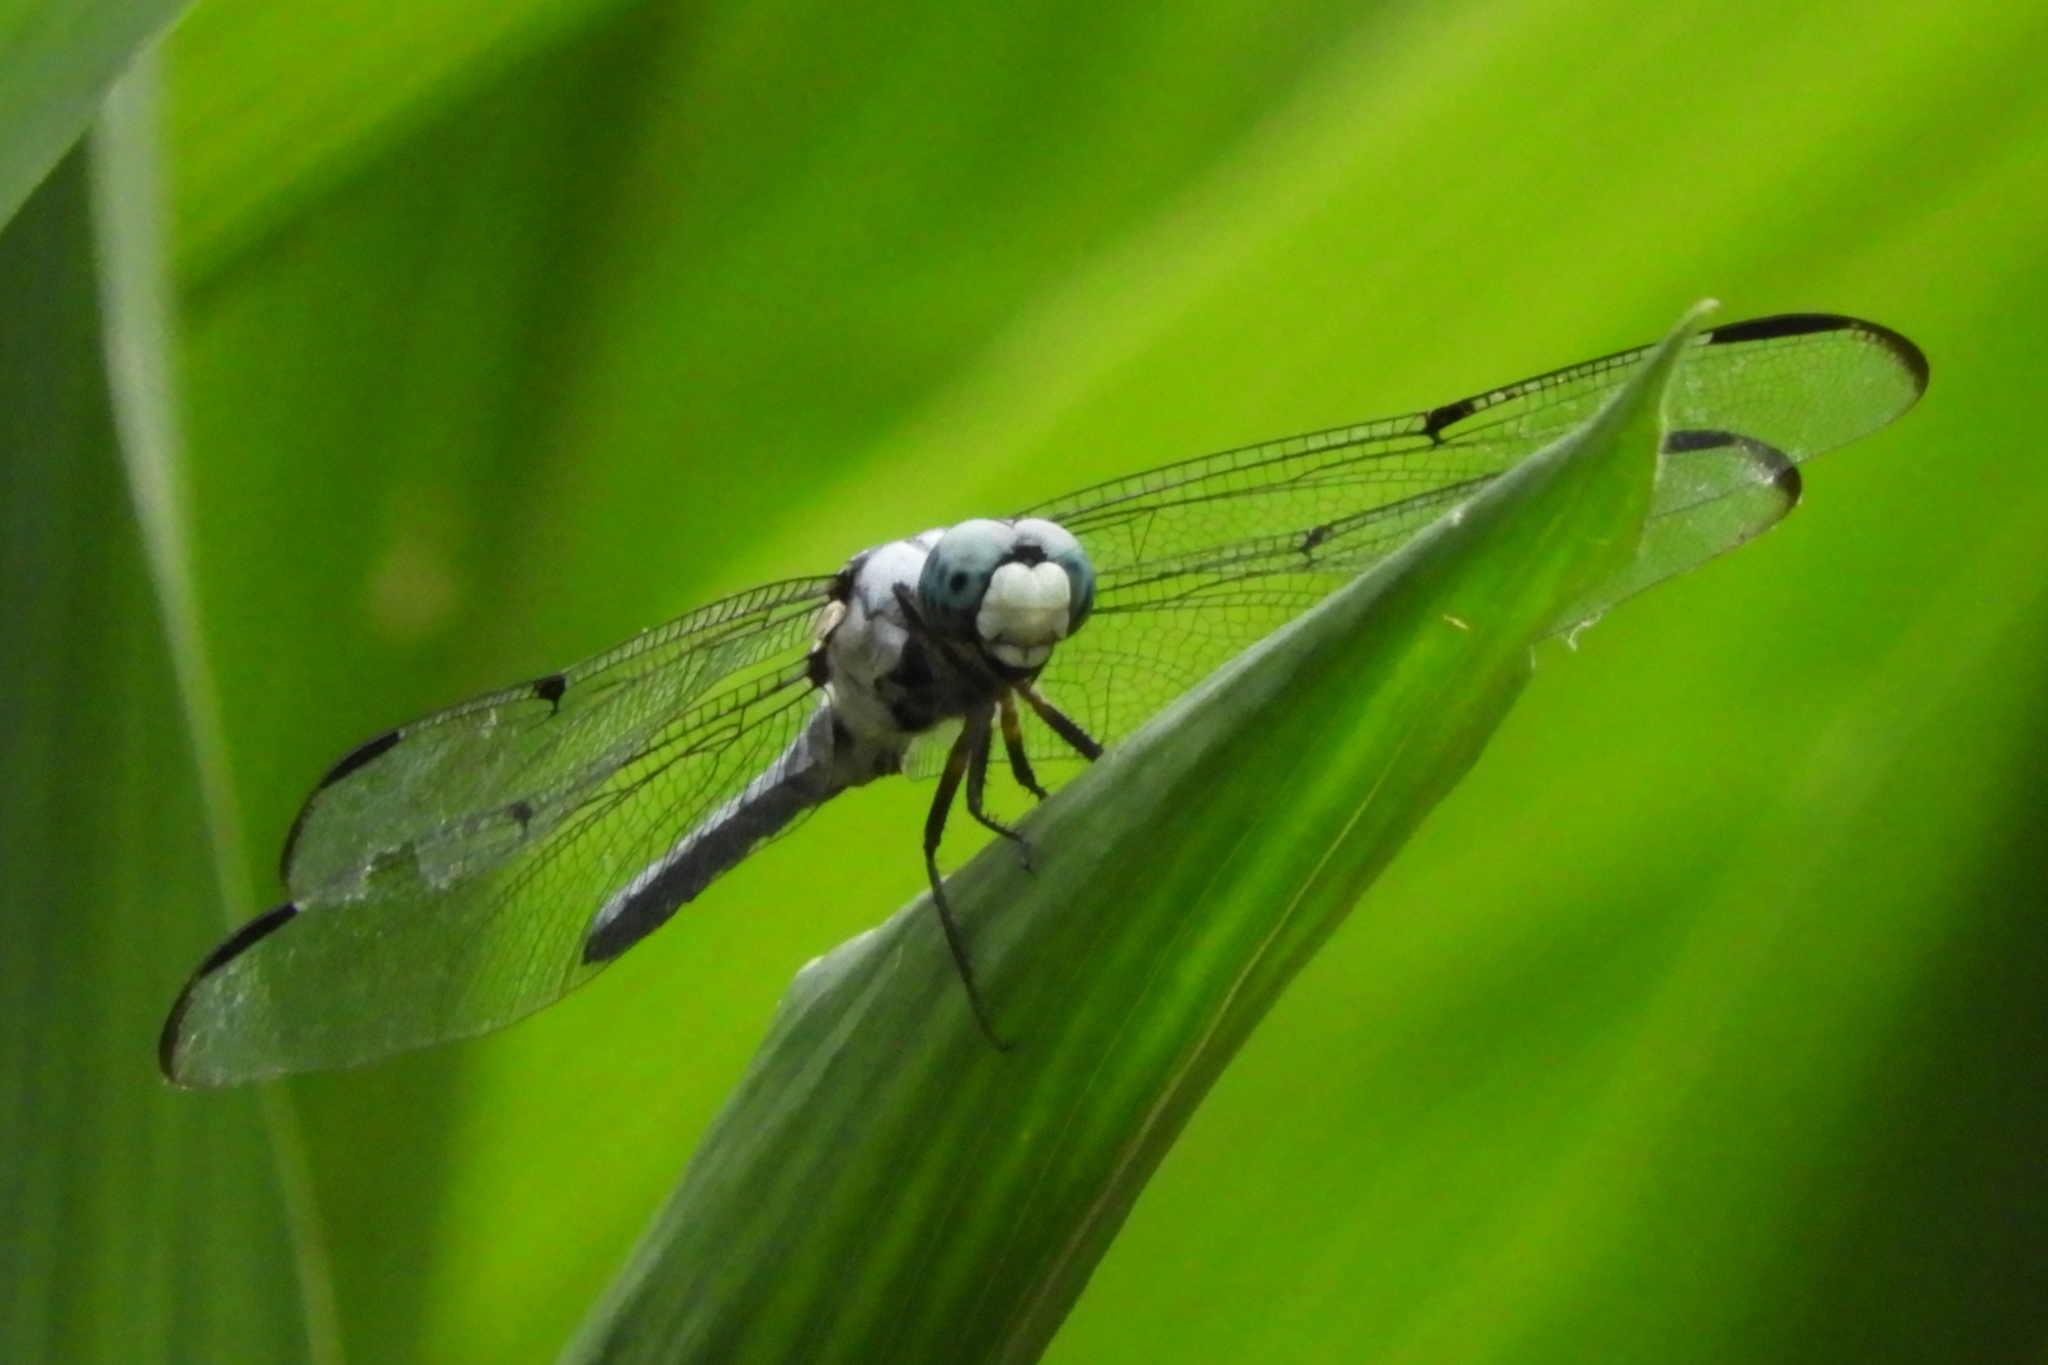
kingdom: Animalia
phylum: Arthropoda
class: Insecta
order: Odonata
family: Libellulidae
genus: Libellula
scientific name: Libellula vibrans
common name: Great blue skimmer
